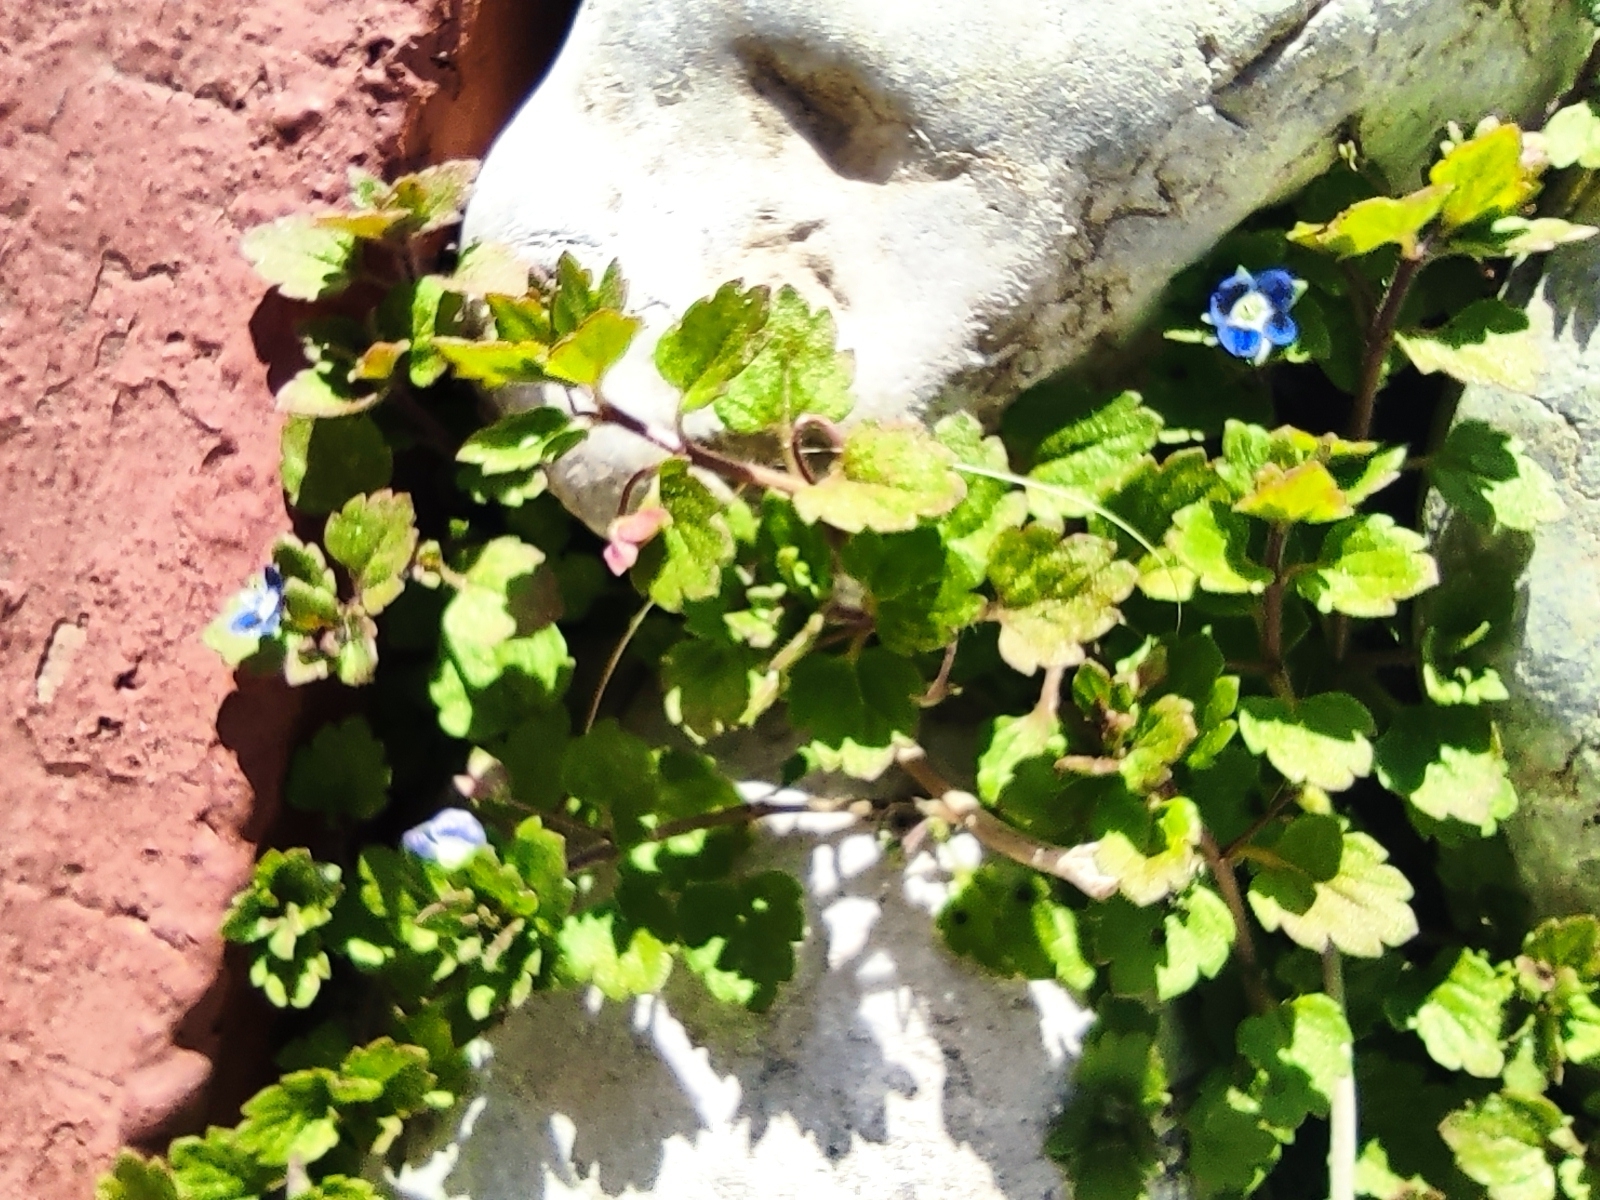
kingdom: Plantae
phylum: Tracheophyta
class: Magnoliopsida
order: Lamiales
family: Plantaginaceae
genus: Veronica
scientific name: Veronica polita
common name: Grey field-speedwell
